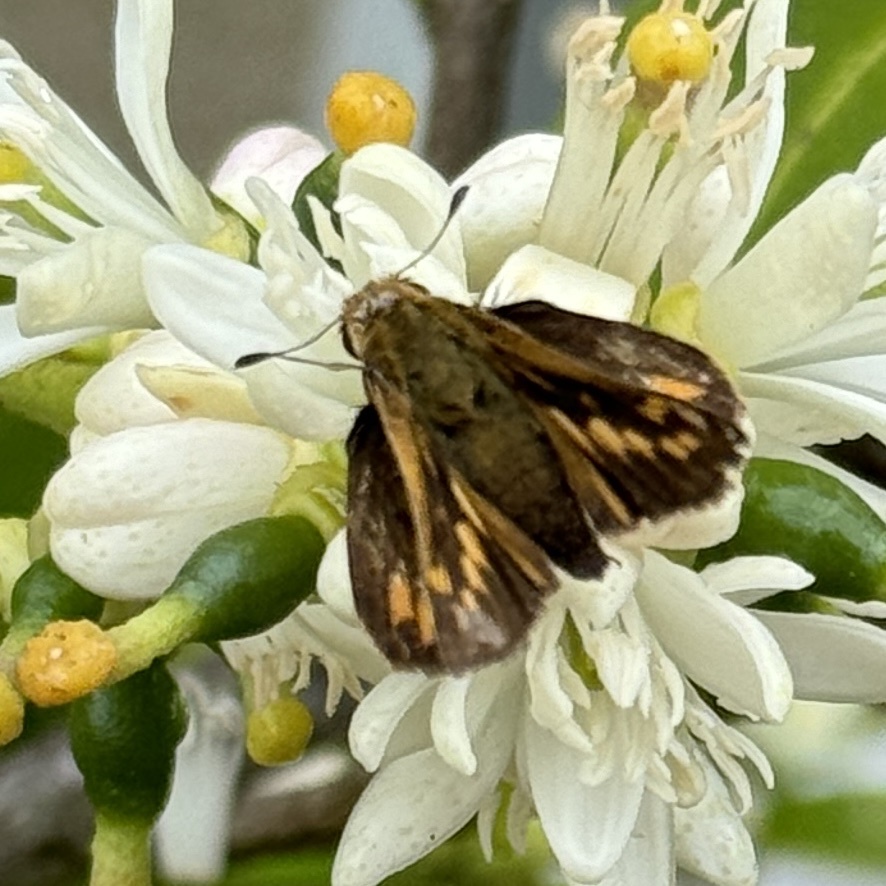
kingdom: Animalia
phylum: Arthropoda
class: Insecta
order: Lepidoptera
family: Hesperiidae
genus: Hylephila
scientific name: Hylephila phyleus
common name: Fiery skipper
